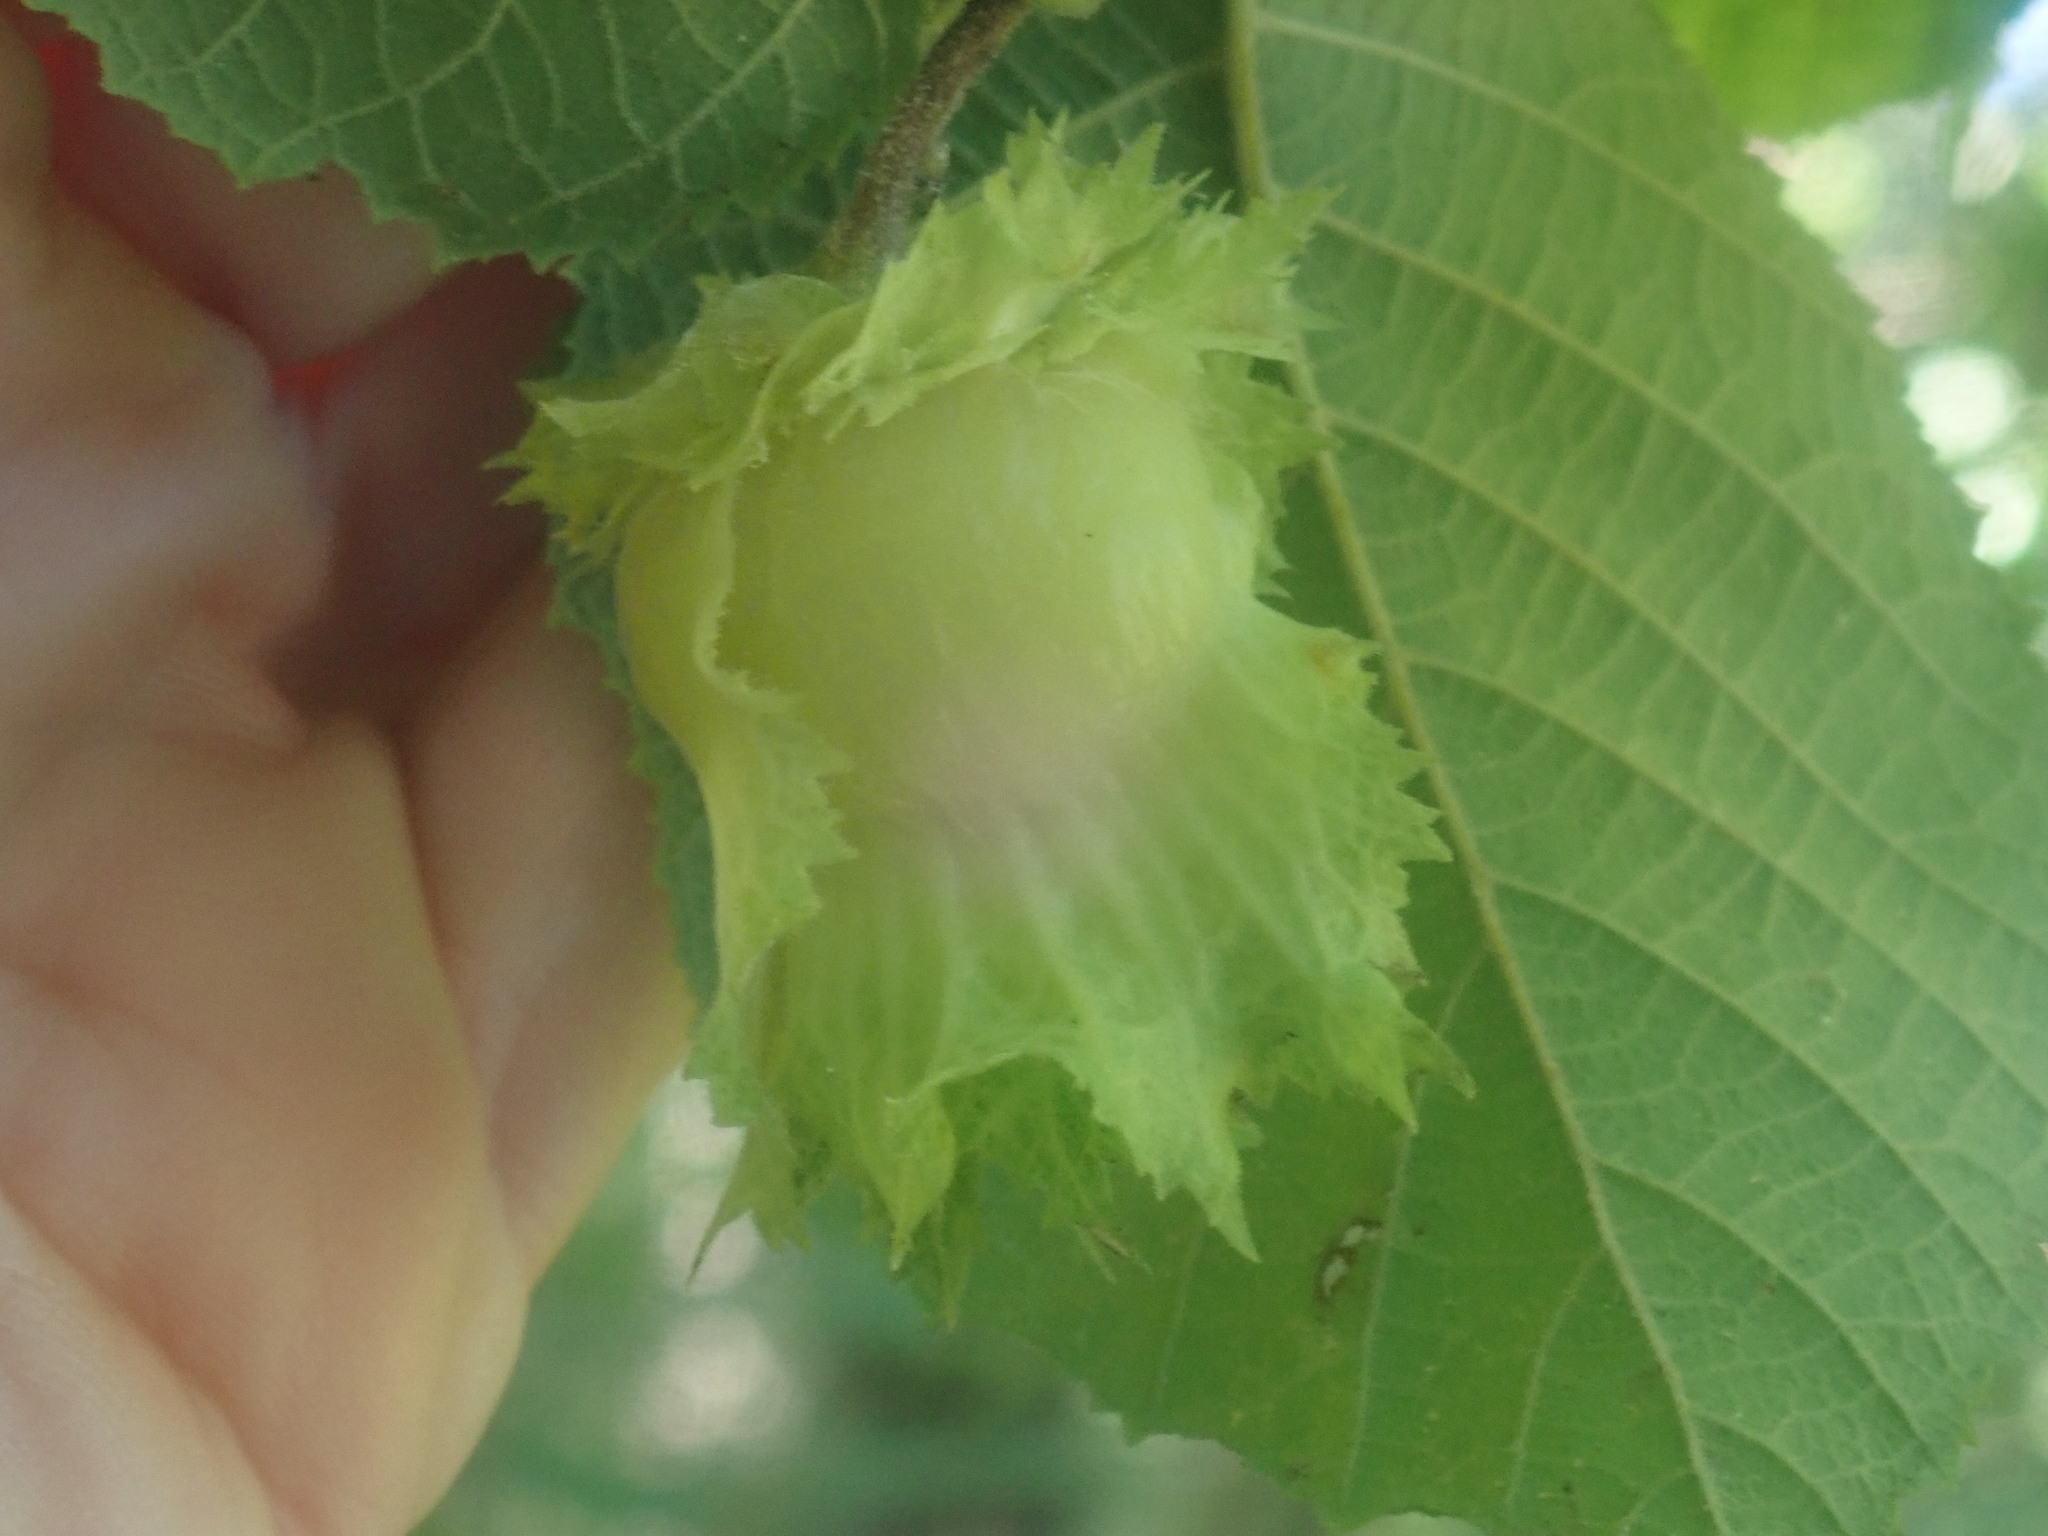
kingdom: Plantae
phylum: Tracheophyta
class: Magnoliopsida
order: Fagales
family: Betulaceae
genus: Corylus
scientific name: Corylus americana
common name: American hazel
